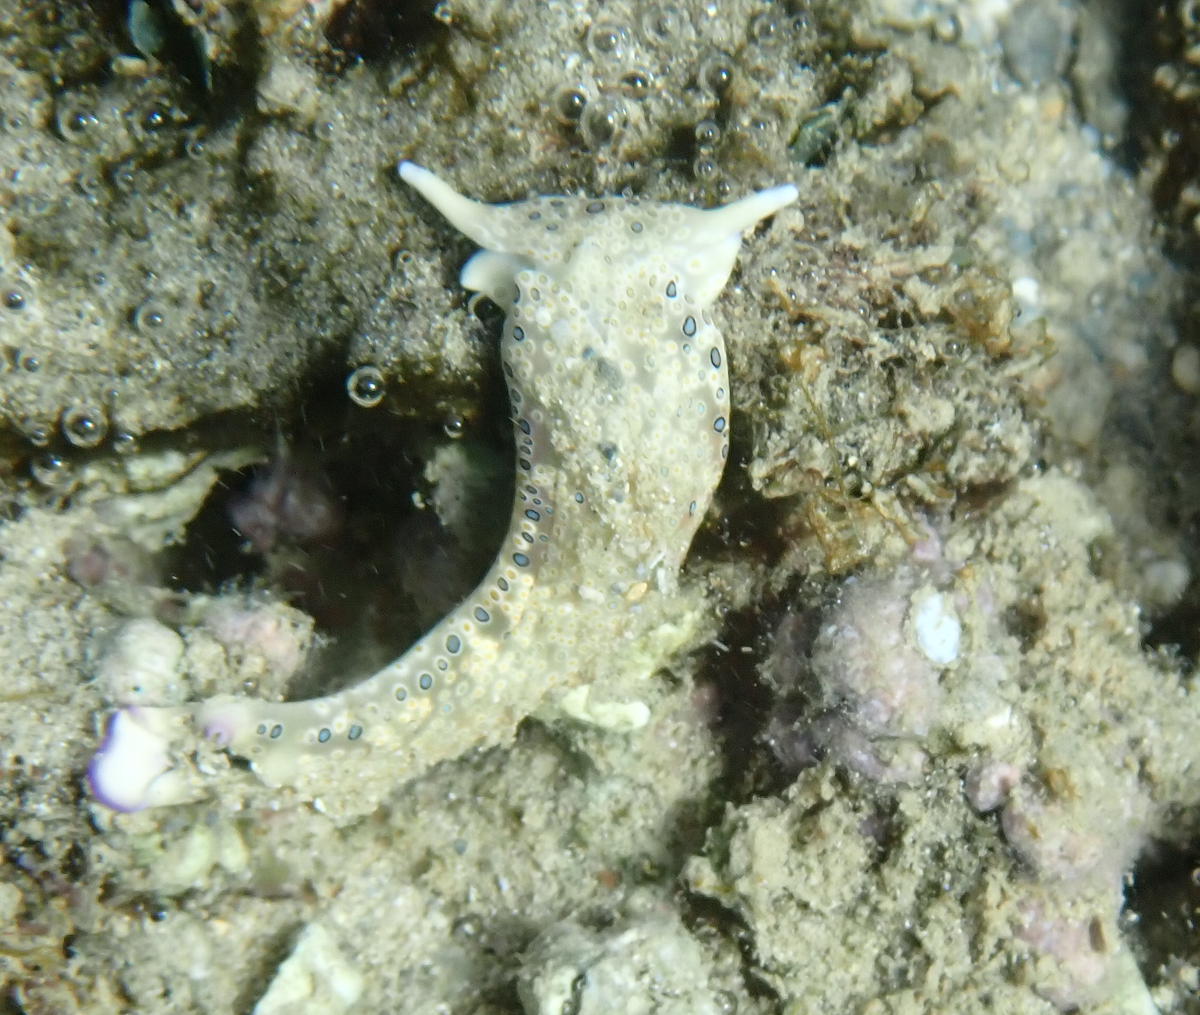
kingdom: Animalia
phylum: Mollusca
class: Gastropoda
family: Plakobranchidae
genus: Plakobranchus
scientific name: Plakobranchus ocellatus
